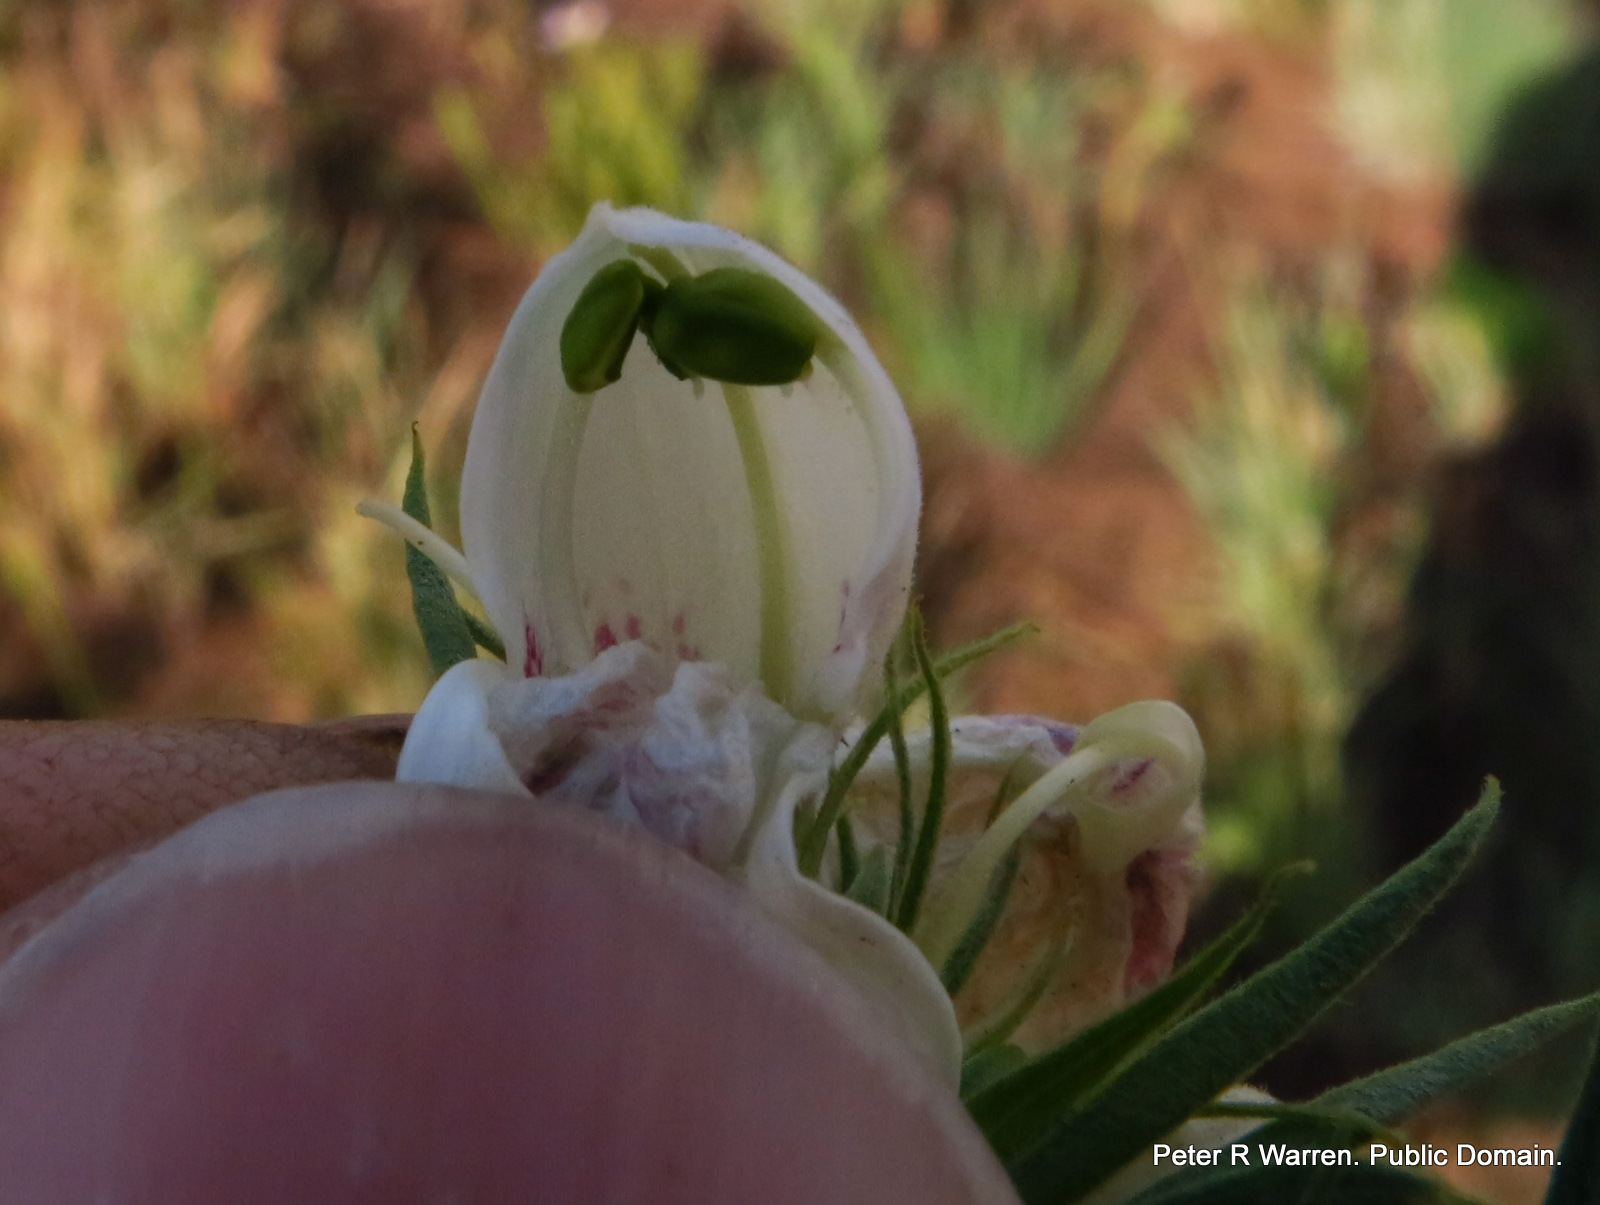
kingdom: Plantae
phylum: Tracheophyta
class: Magnoliopsida
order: Lamiales
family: Acanthaceae
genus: Justicia
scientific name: Justicia andromeda
